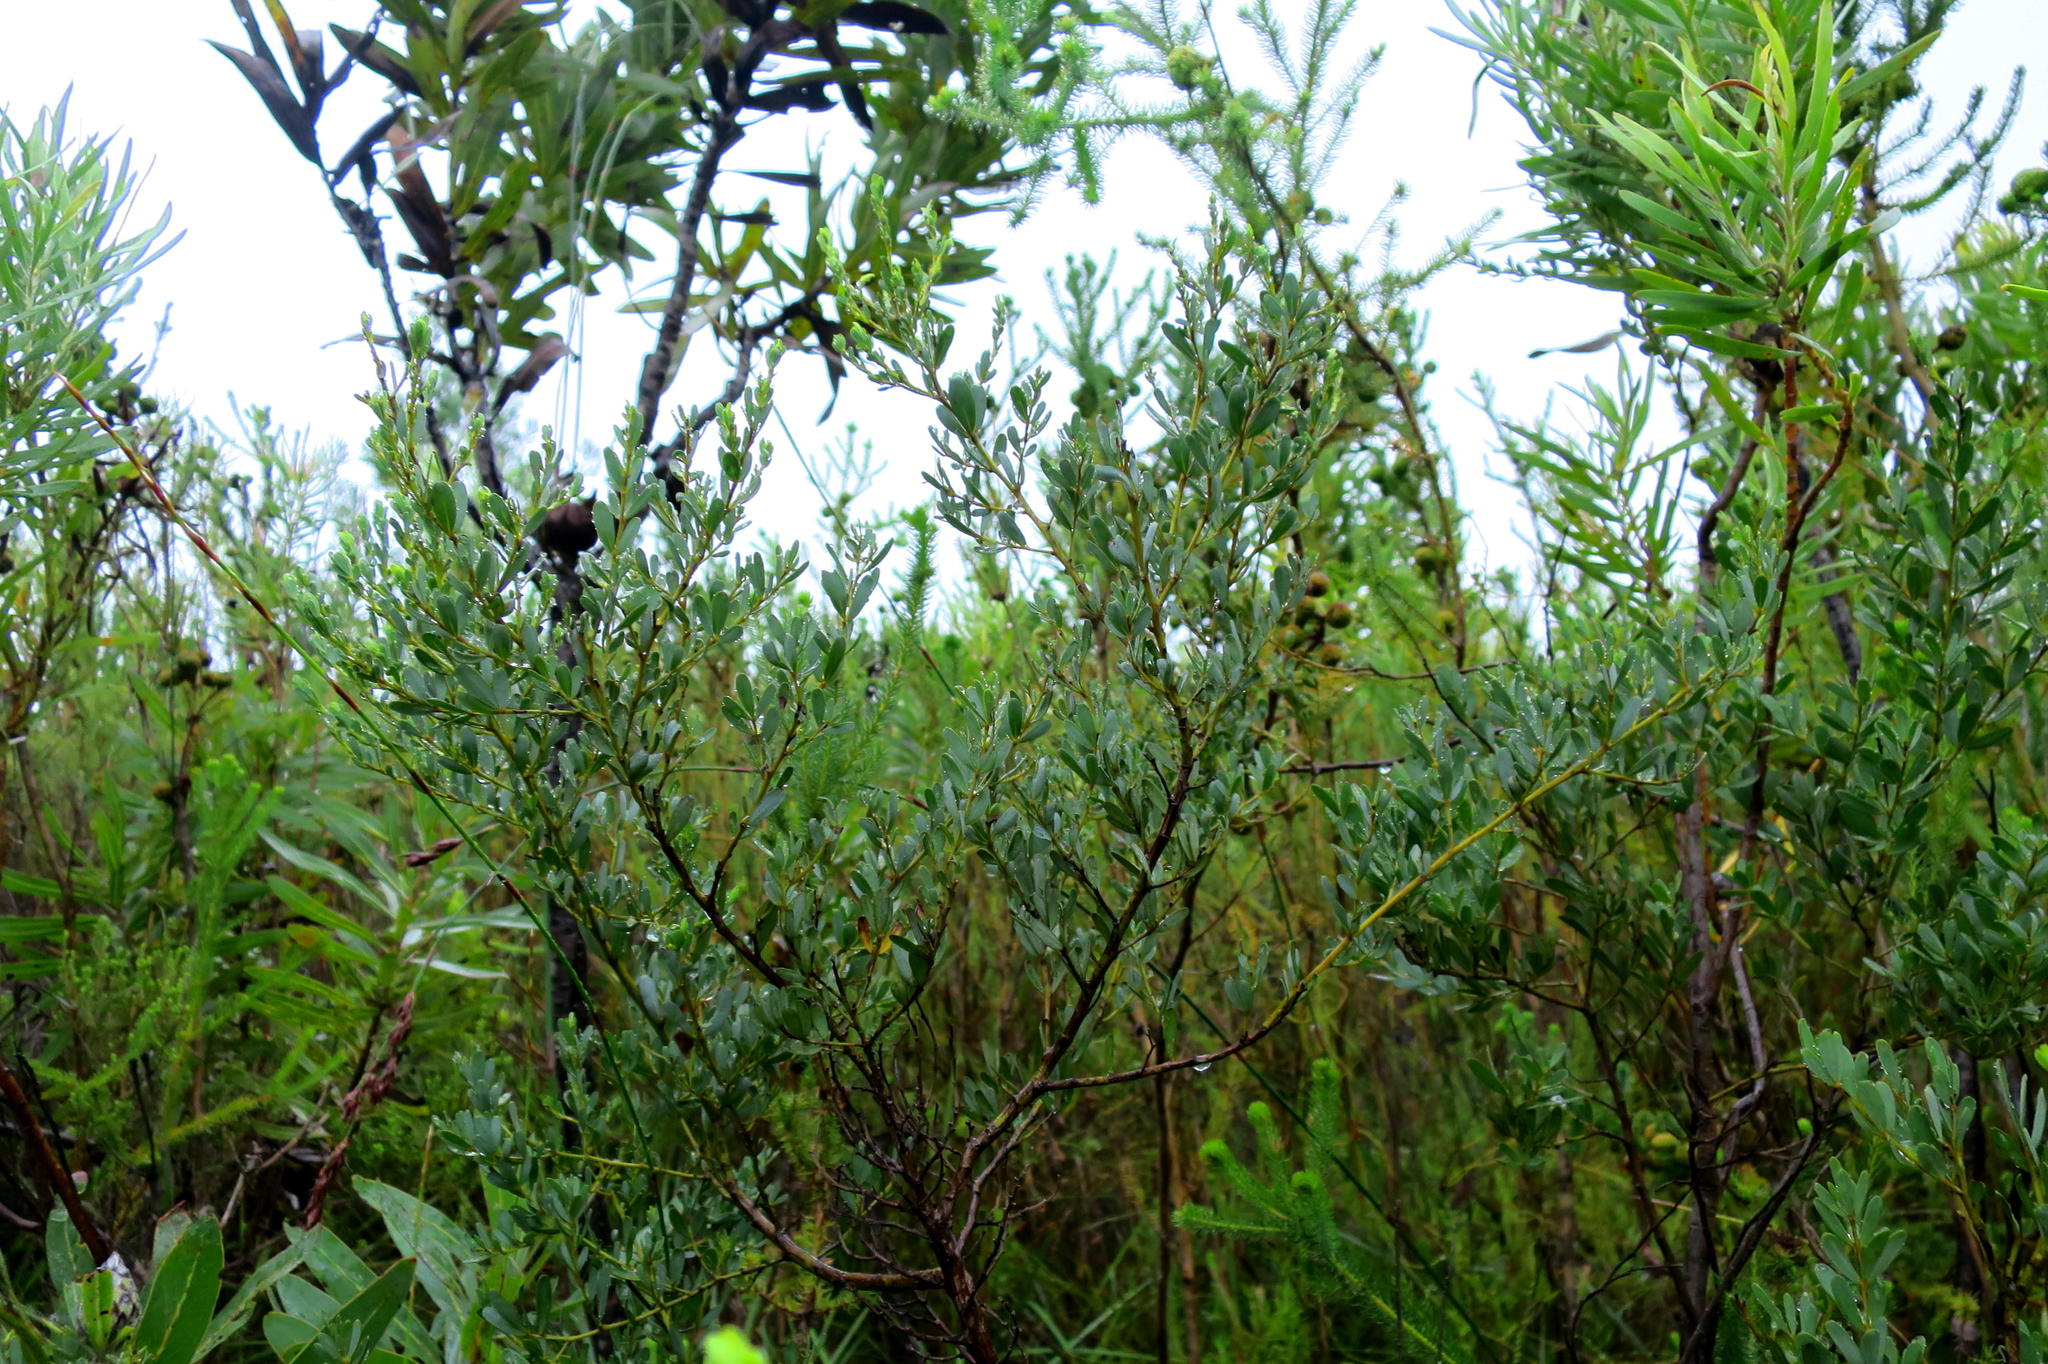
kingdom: Plantae
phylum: Tracheophyta
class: Magnoliopsida
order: Fabales
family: Fabaceae
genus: Cyclopia
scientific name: Cyclopia subternata
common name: Honeybush tea
